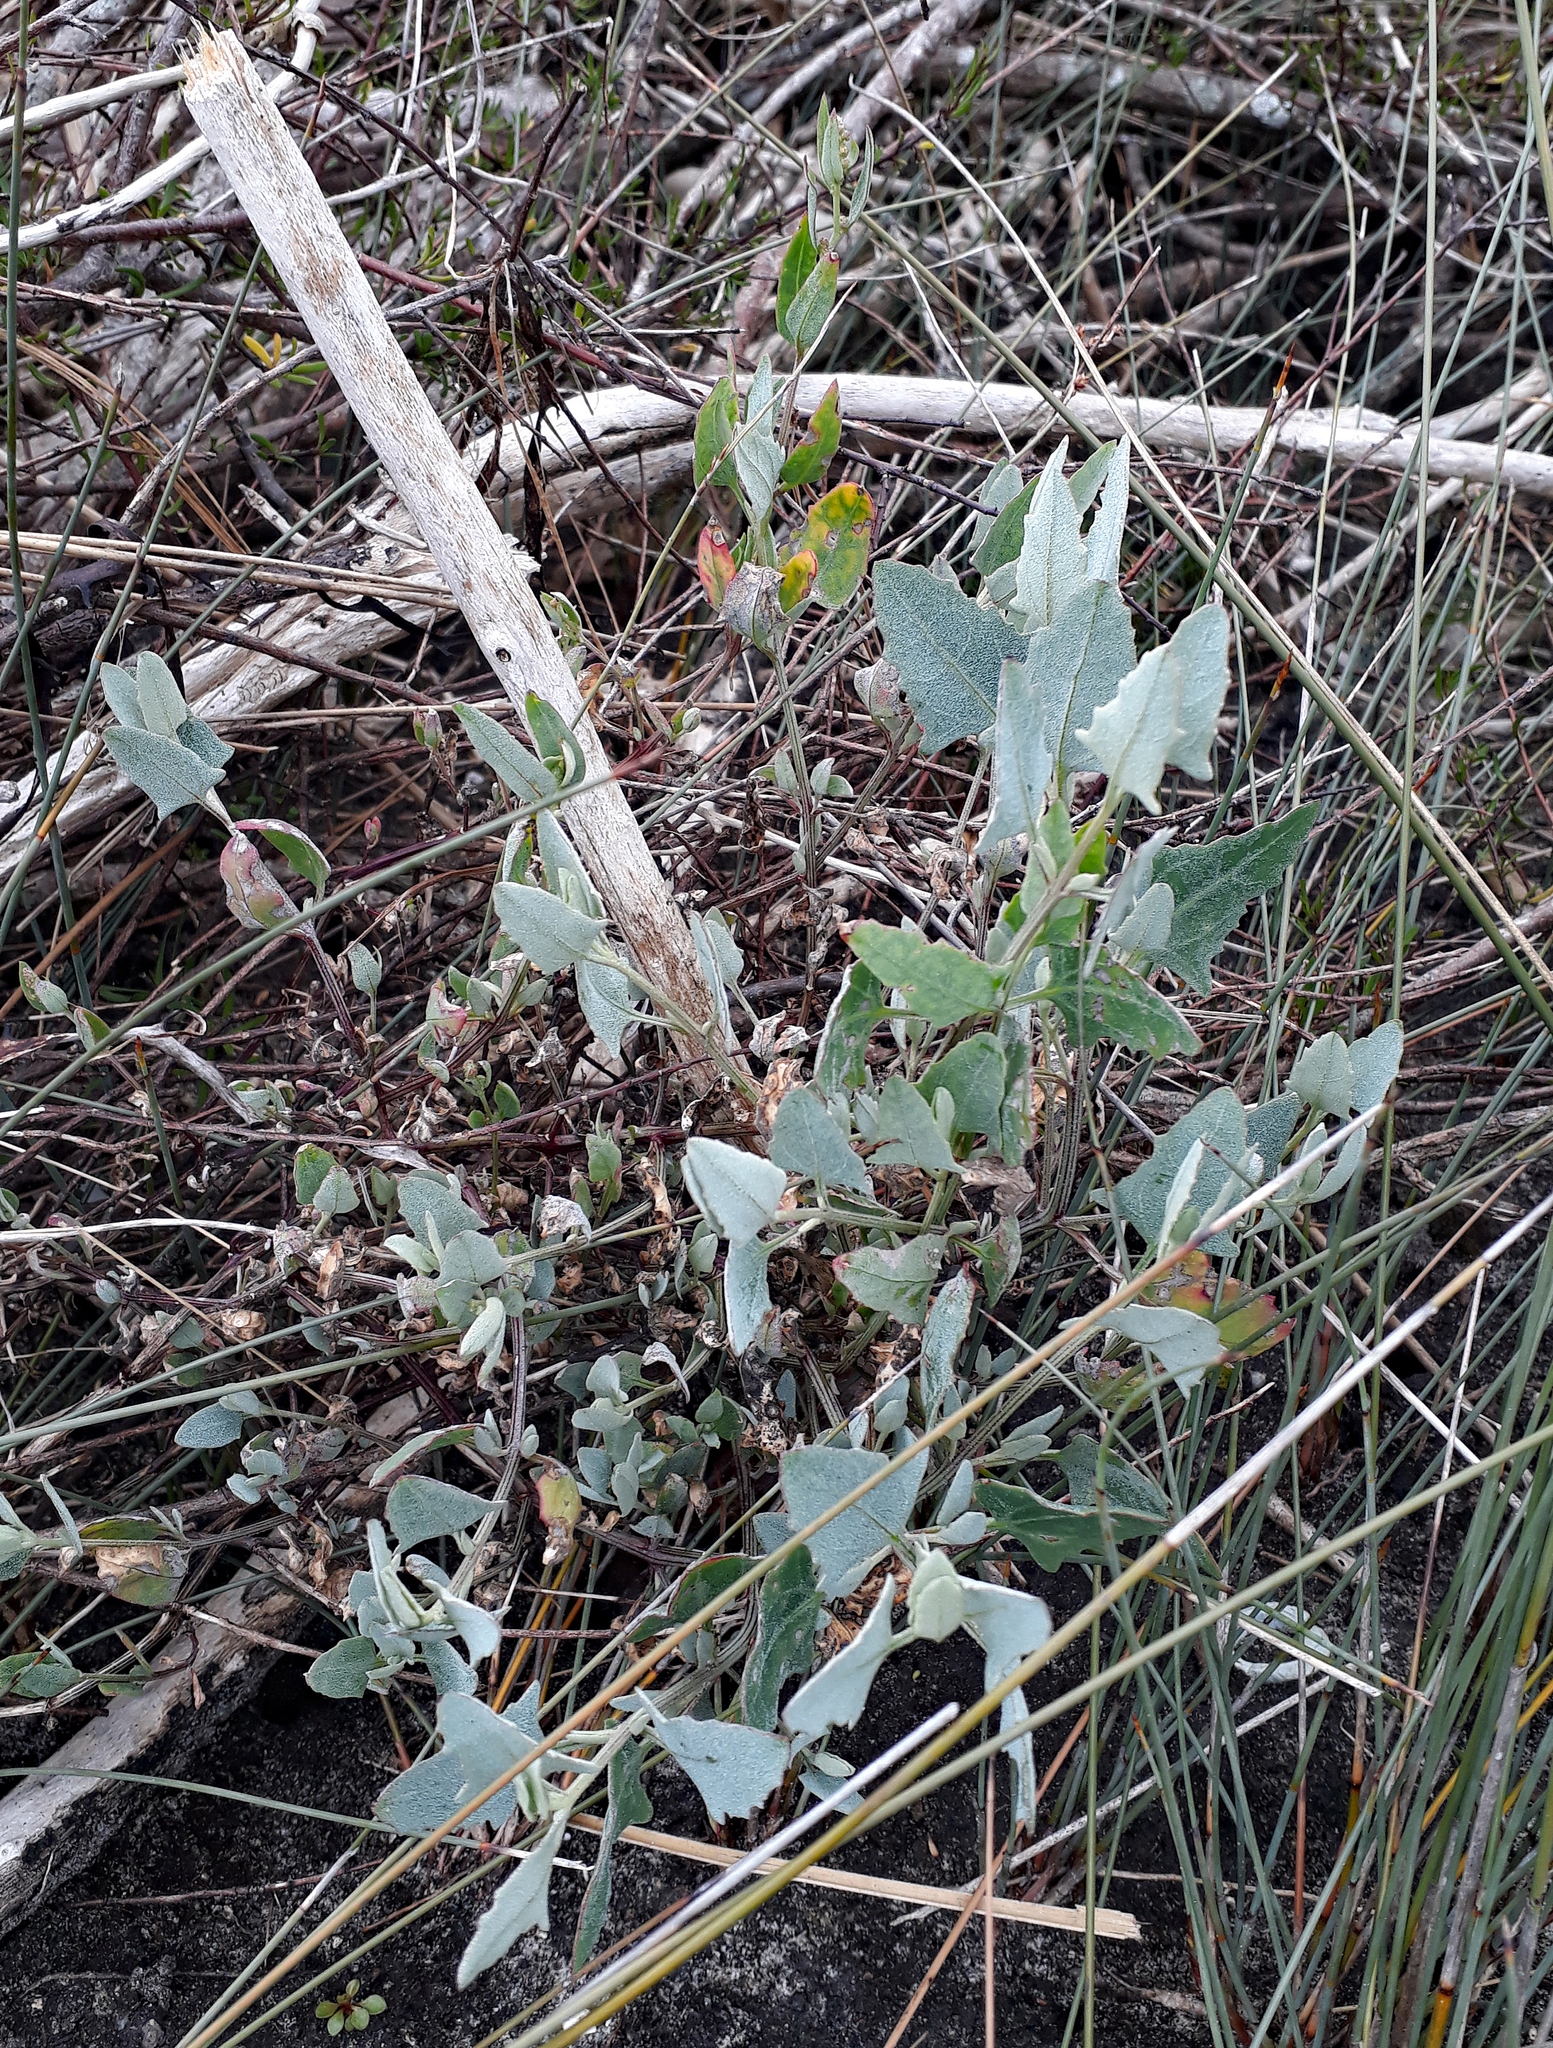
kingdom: Plantae
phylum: Tracheophyta
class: Magnoliopsida
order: Caryophyllales
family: Amaranthaceae
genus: Atriplex
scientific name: Atriplex prostrata
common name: Spear-leaved orache
